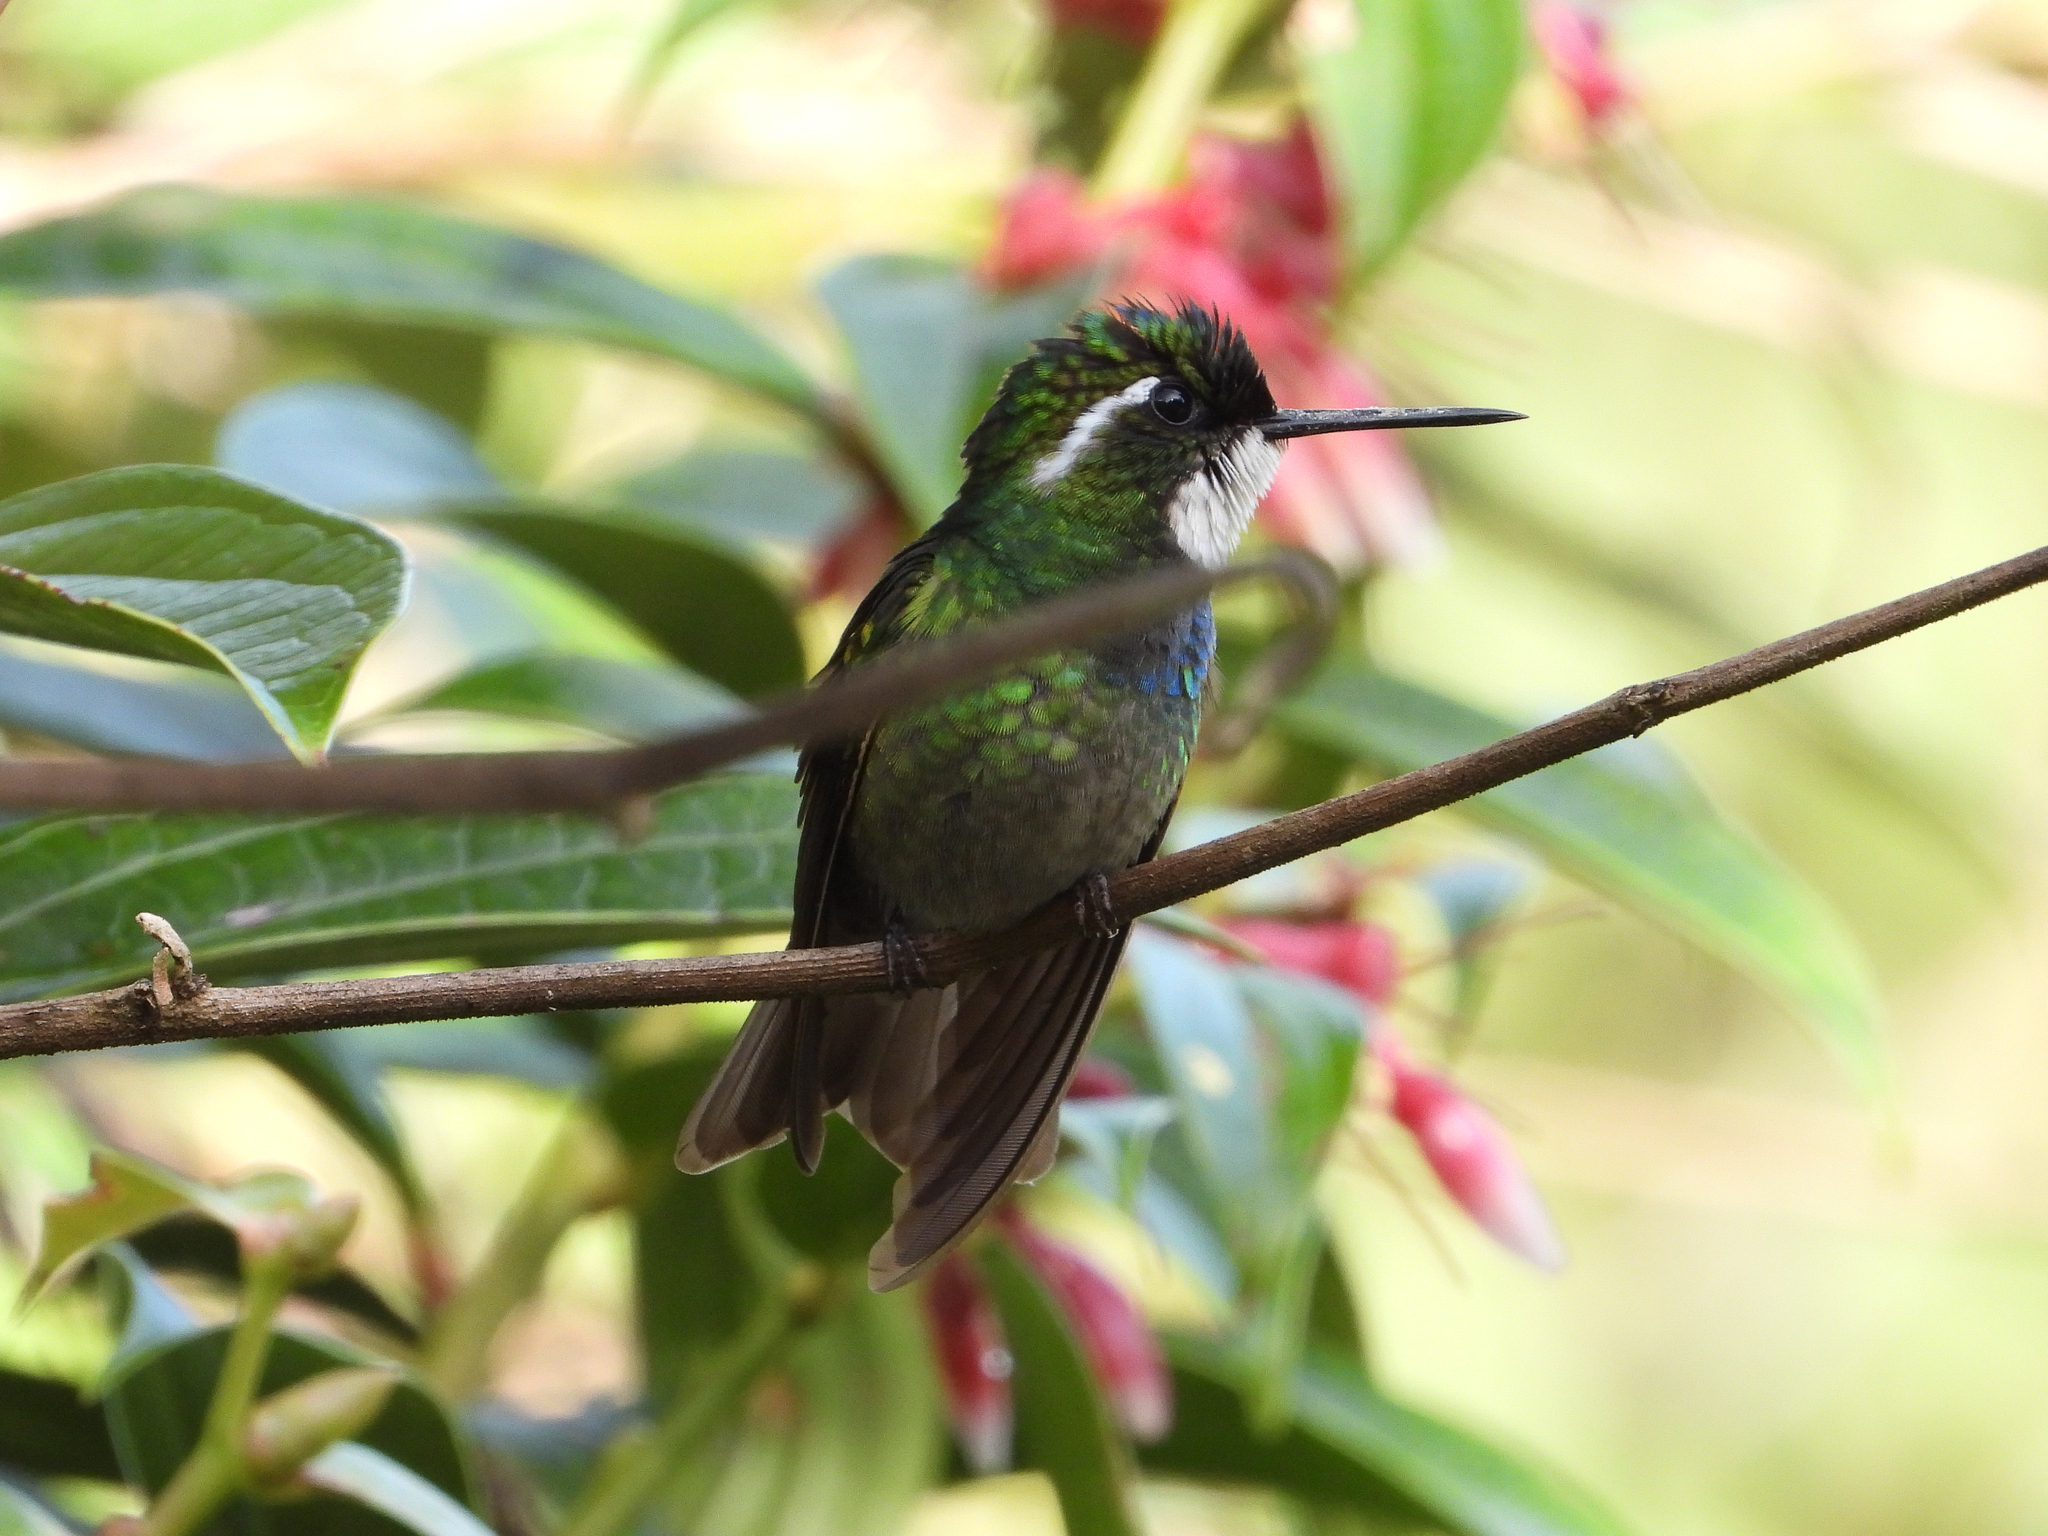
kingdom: Animalia
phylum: Chordata
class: Aves
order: Apodiformes
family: Trochilidae
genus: Lampornis
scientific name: Lampornis castaneoventris
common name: White-throated mountain-gem
